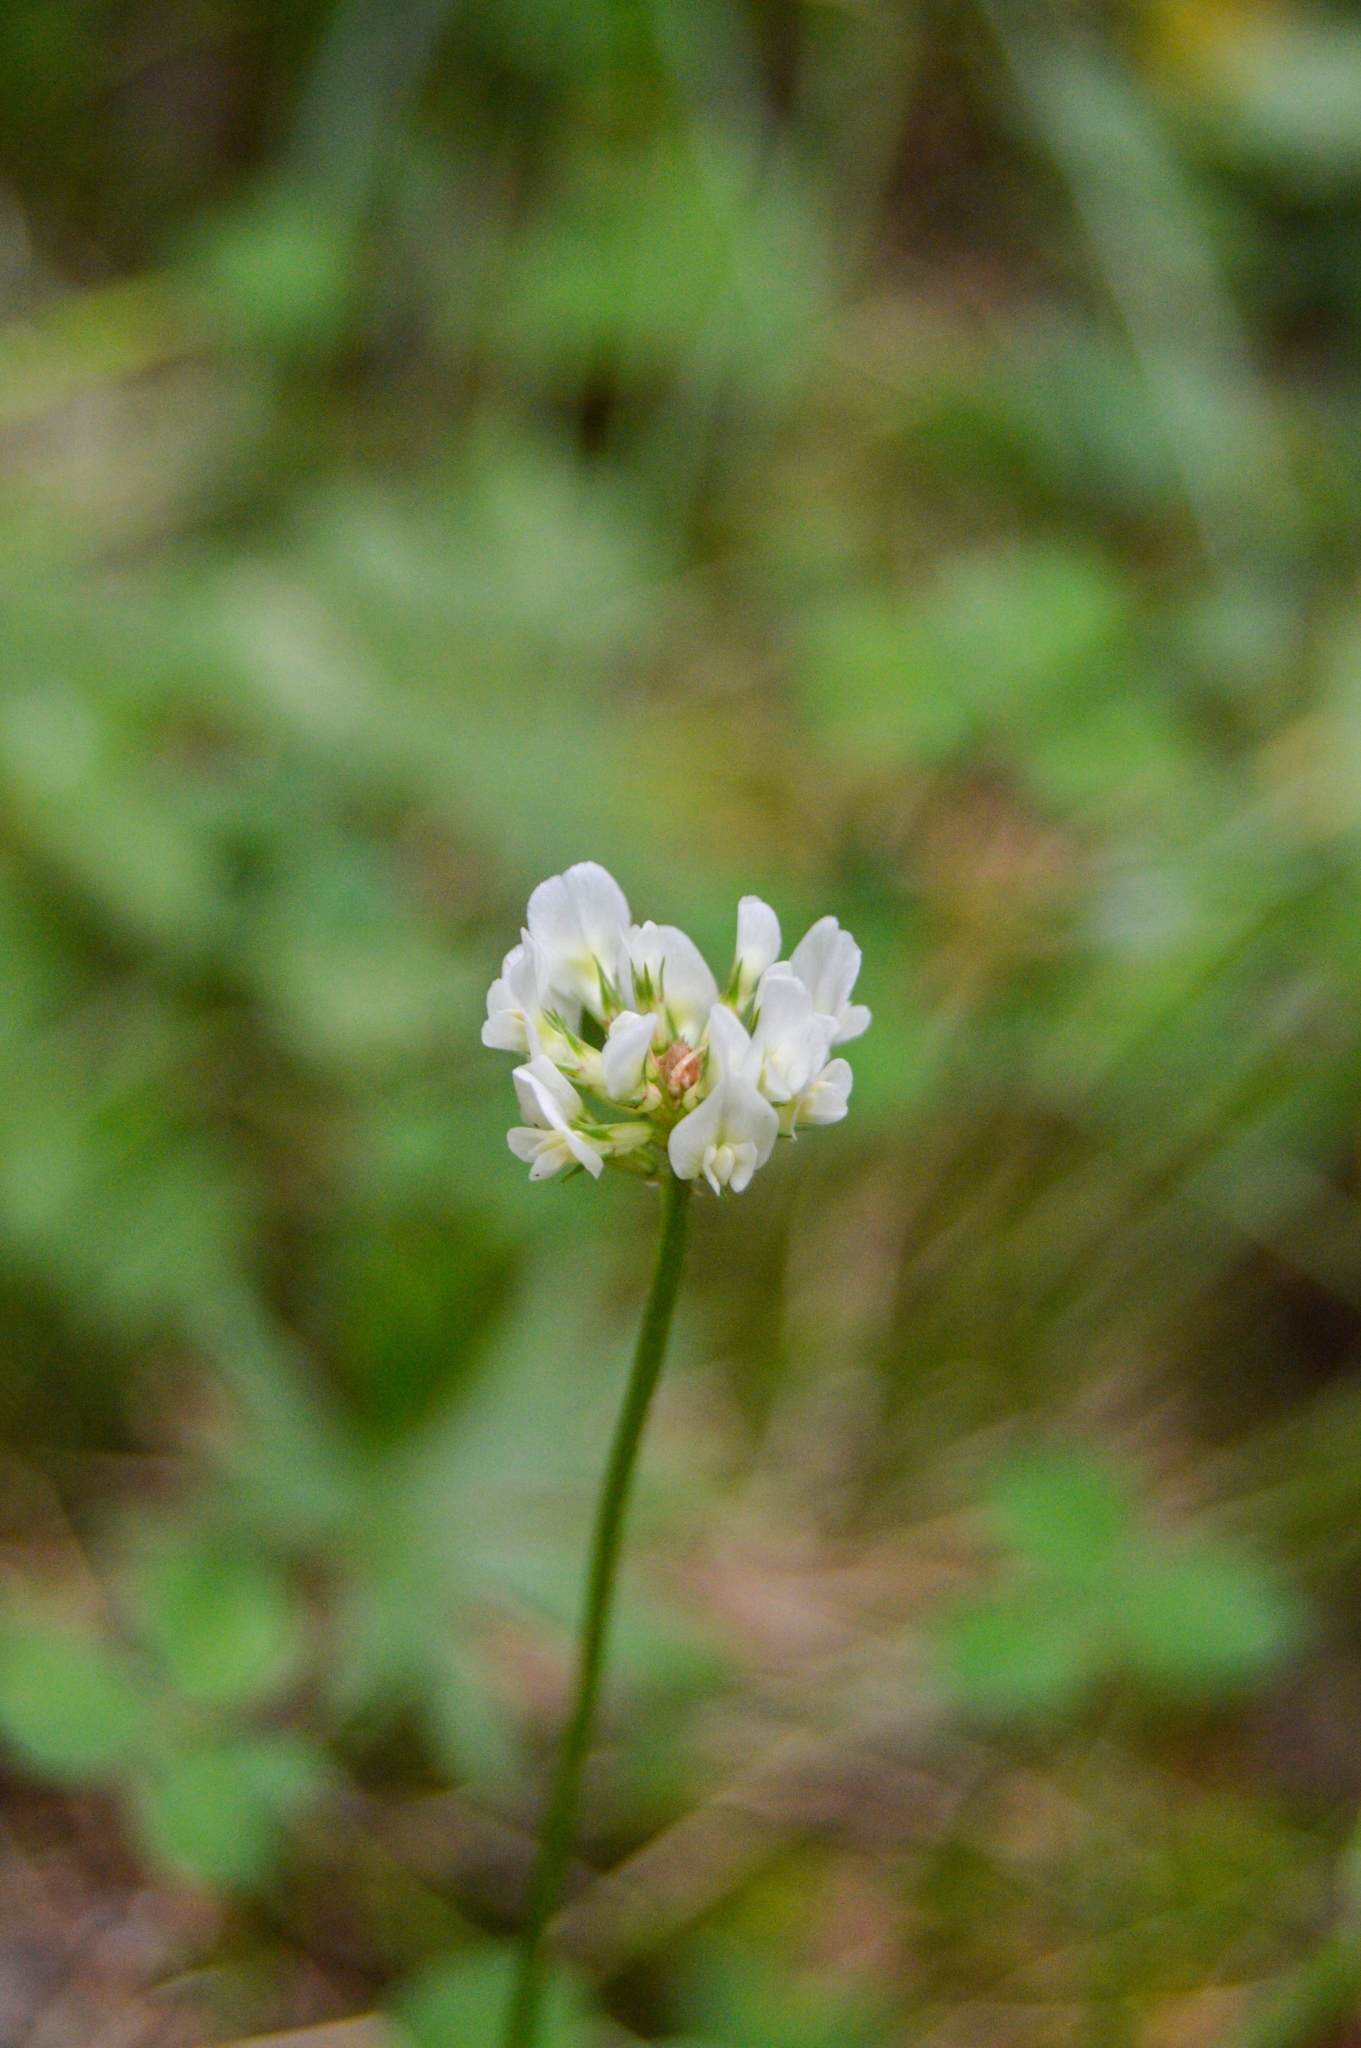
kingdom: Plantae
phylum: Tracheophyta
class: Magnoliopsida
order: Fabales
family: Fabaceae
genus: Trifolium
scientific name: Trifolium repens
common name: White clover
